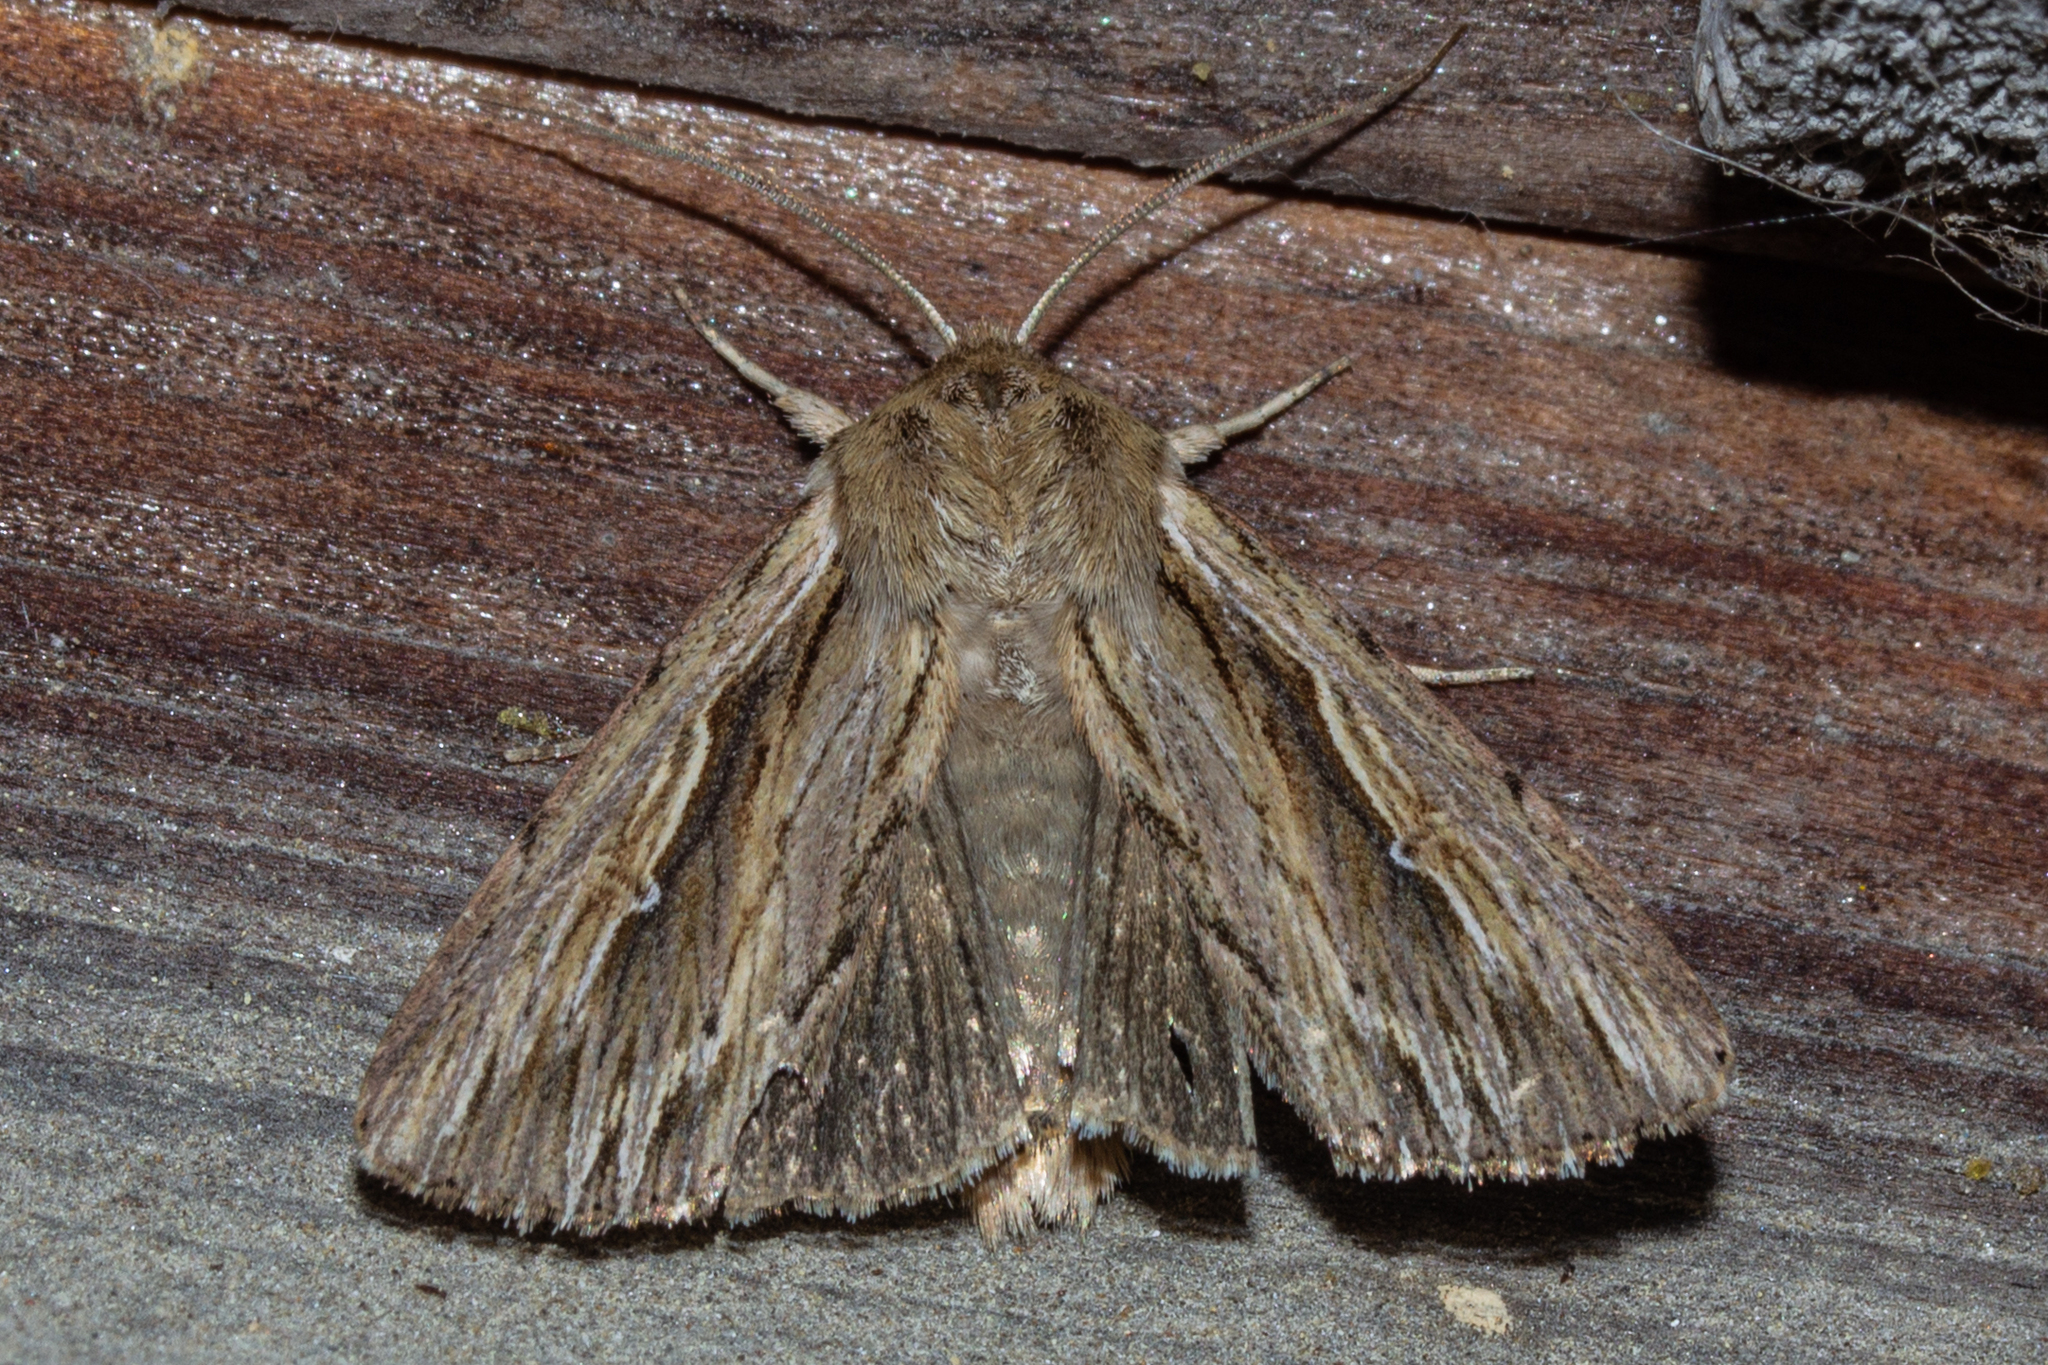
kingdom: Animalia
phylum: Arthropoda
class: Insecta
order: Lepidoptera
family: Noctuidae
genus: Persectania
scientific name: Persectania aversa
